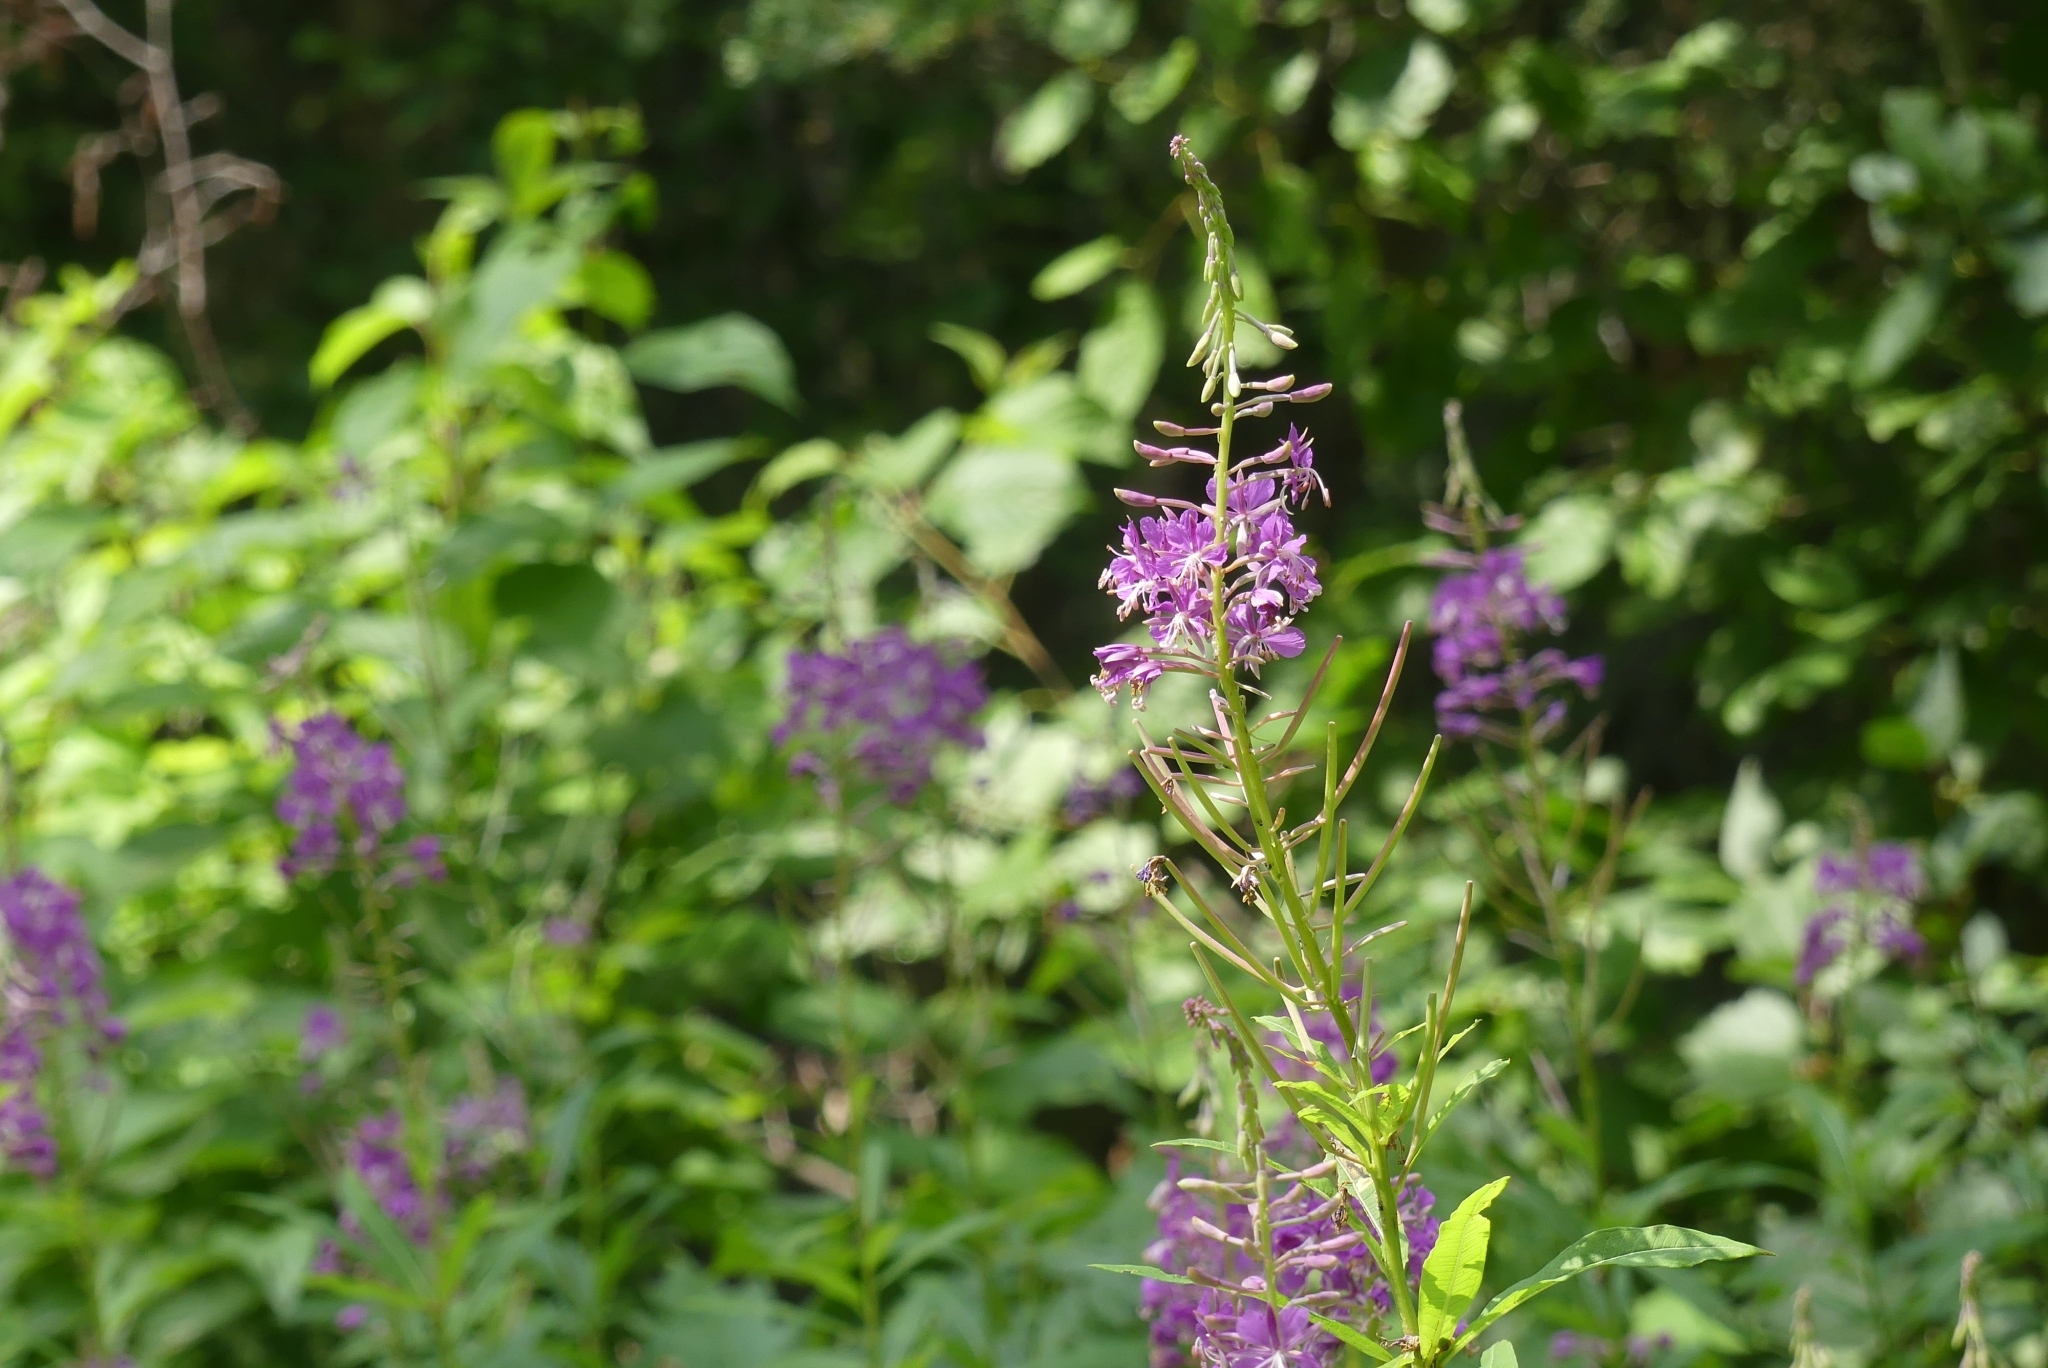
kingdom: Plantae
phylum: Tracheophyta
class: Magnoliopsida
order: Myrtales
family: Onagraceae
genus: Chamaenerion
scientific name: Chamaenerion angustifolium
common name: Fireweed
